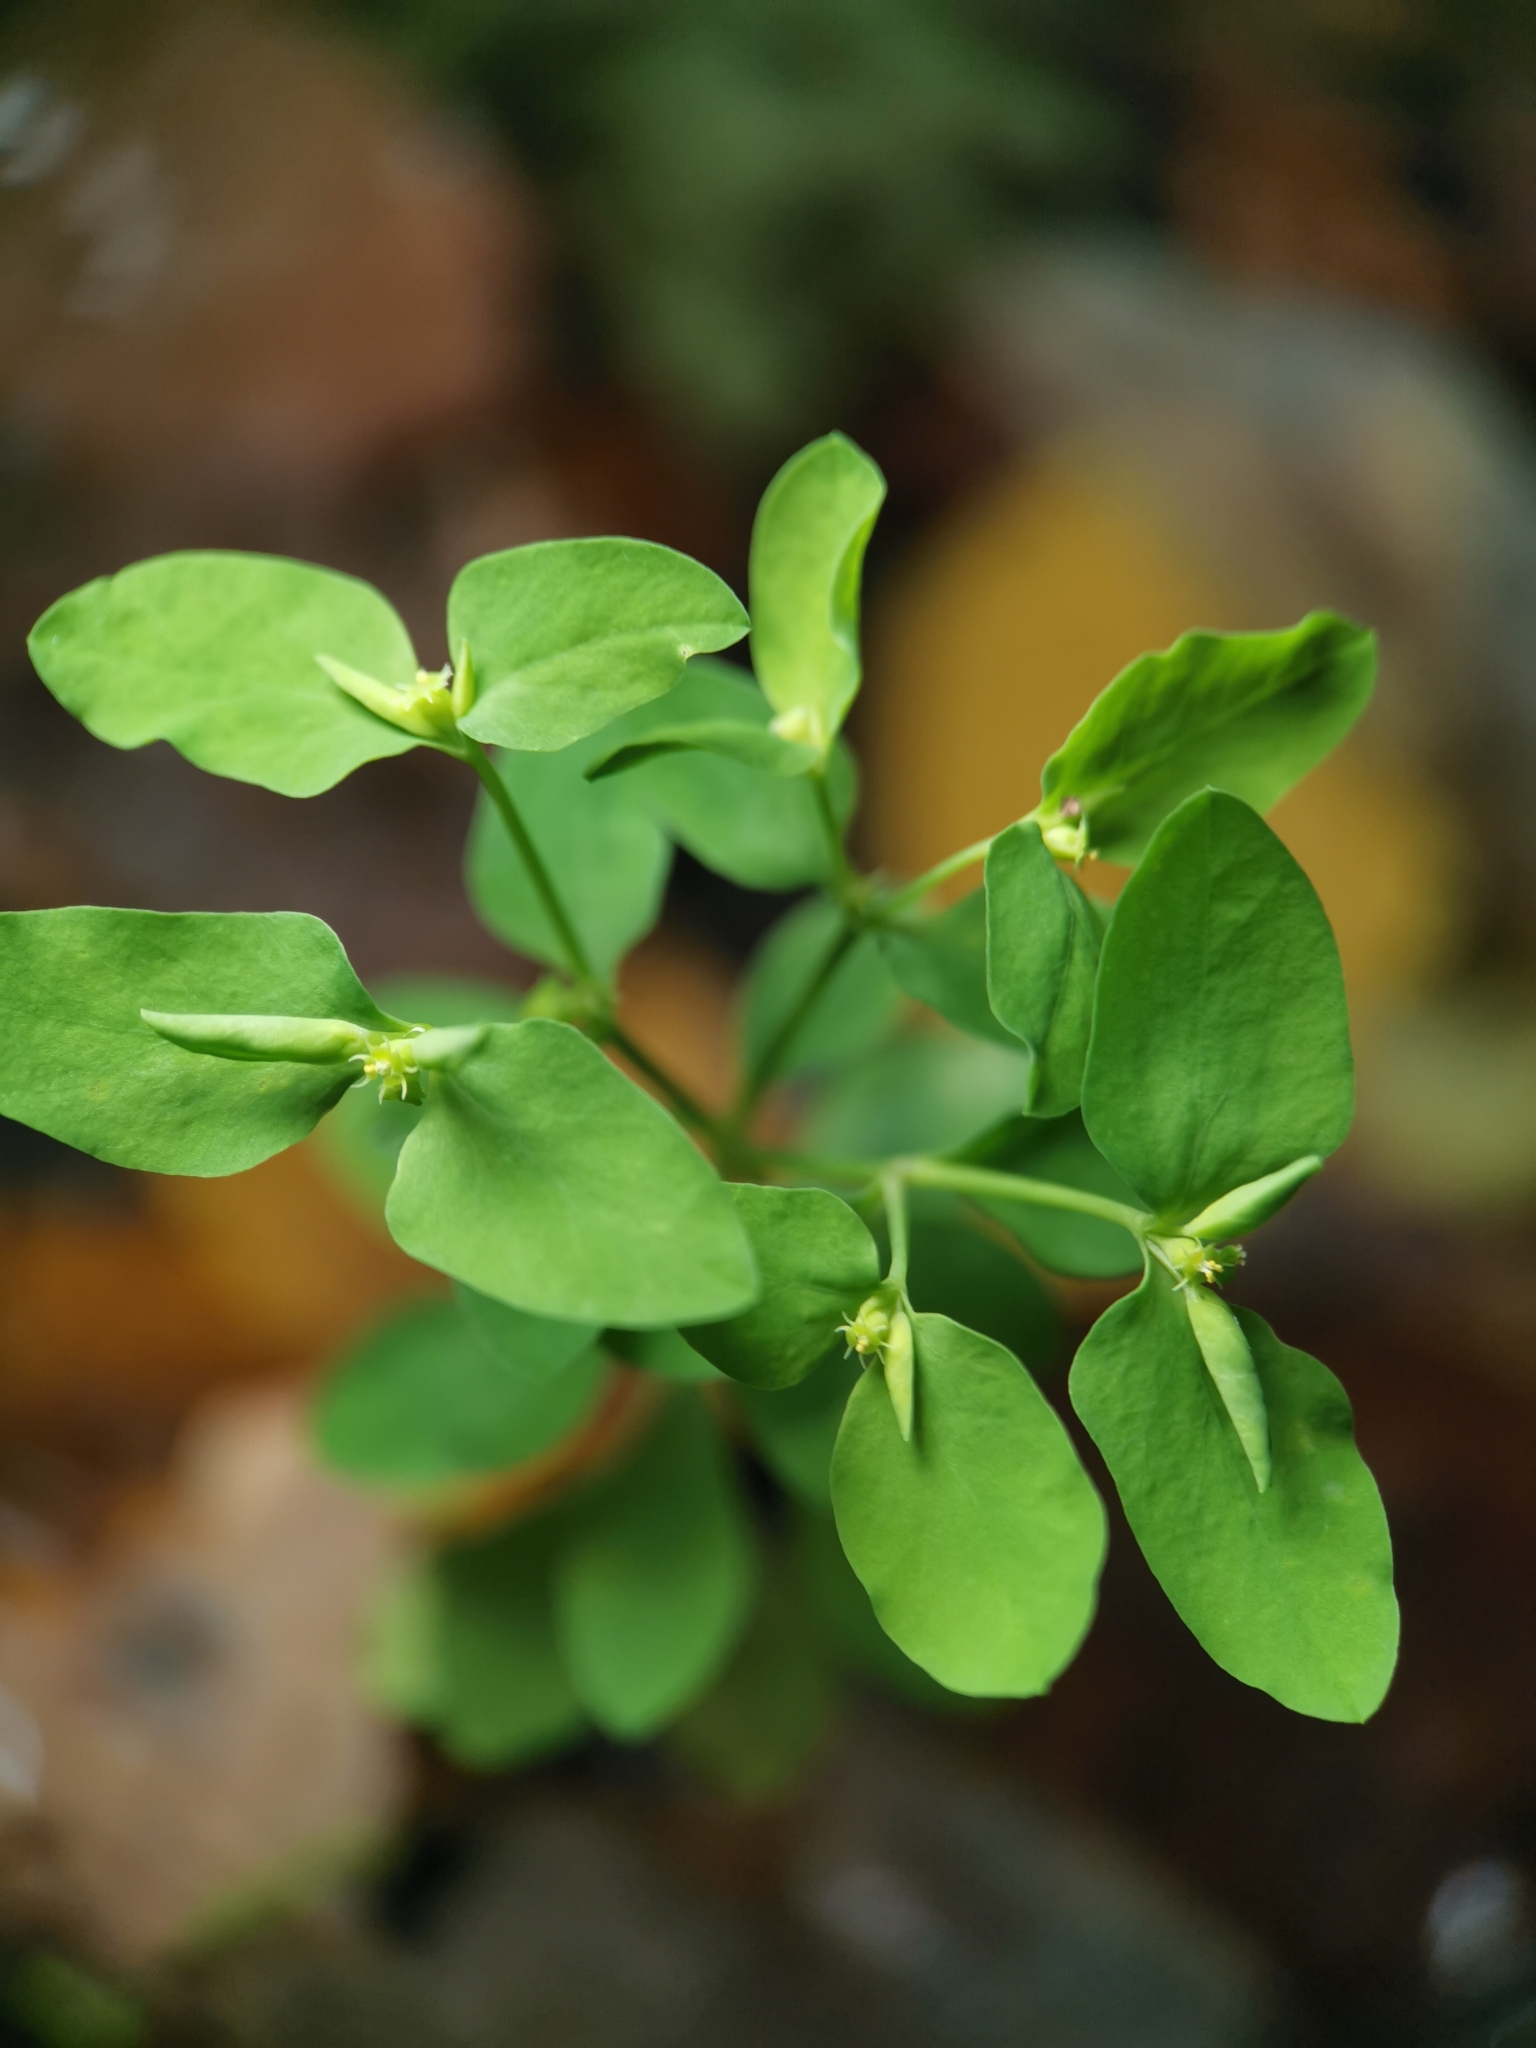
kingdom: Plantae
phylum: Tracheophyta
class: Magnoliopsida
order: Malpighiales
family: Euphorbiaceae
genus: Euphorbia
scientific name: Euphorbia peplus
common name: Petty spurge
